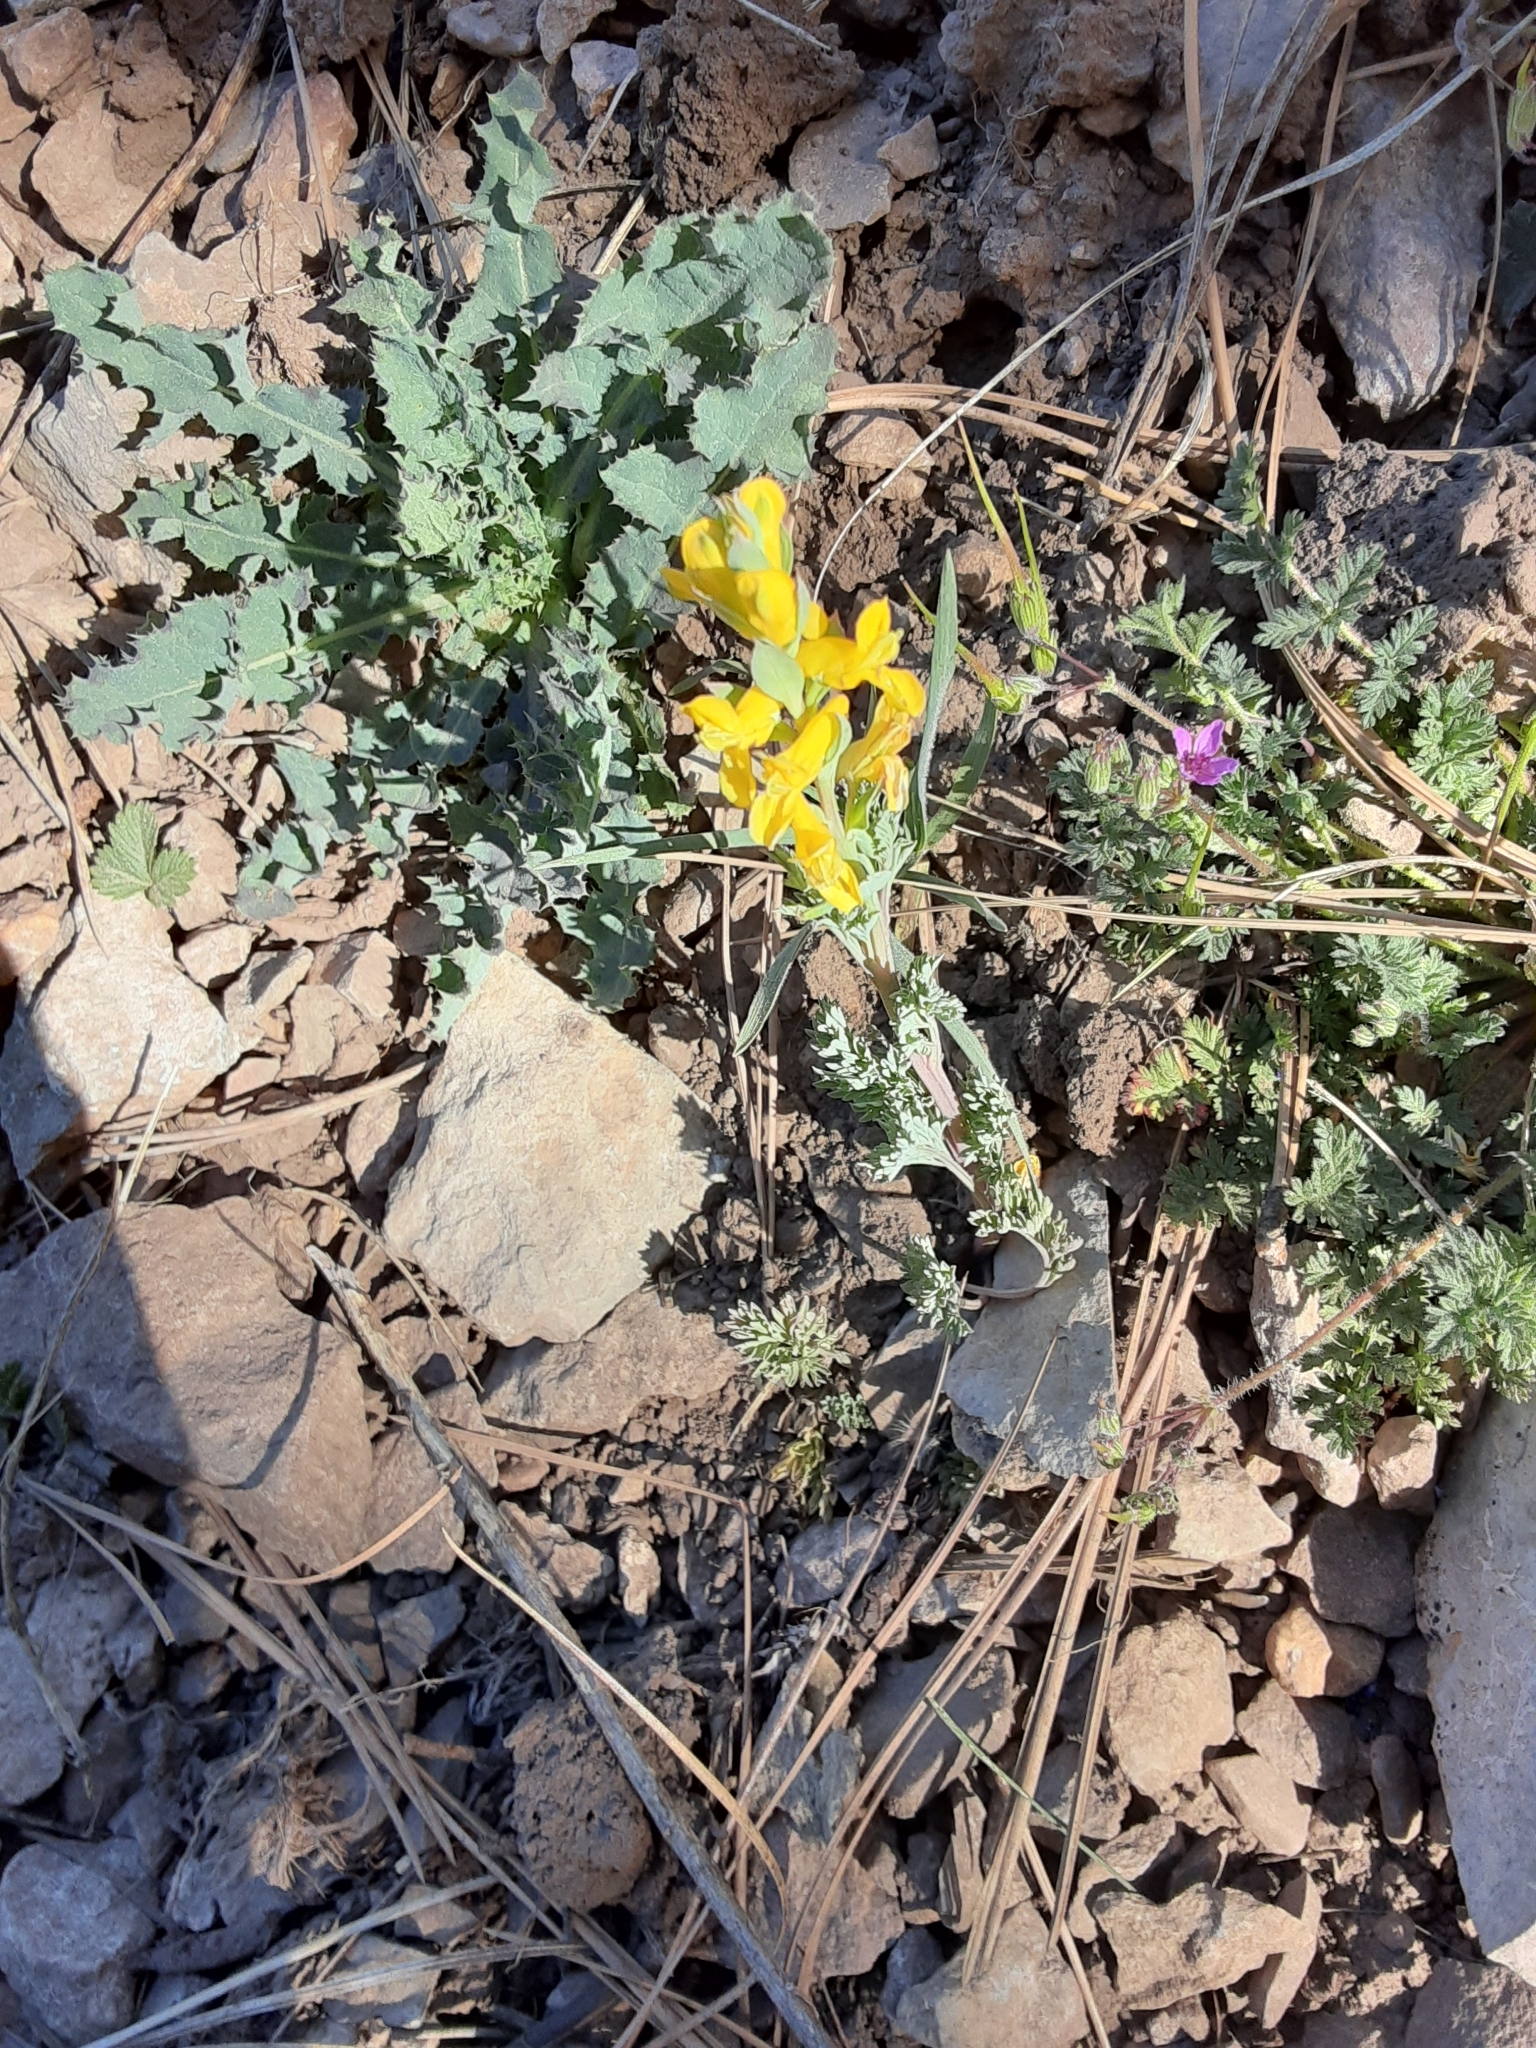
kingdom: Plantae
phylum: Tracheophyta
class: Magnoliopsida
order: Ranunculales
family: Papaveraceae
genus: Corydalis
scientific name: Corydalis aurea
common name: Golden corydalis
